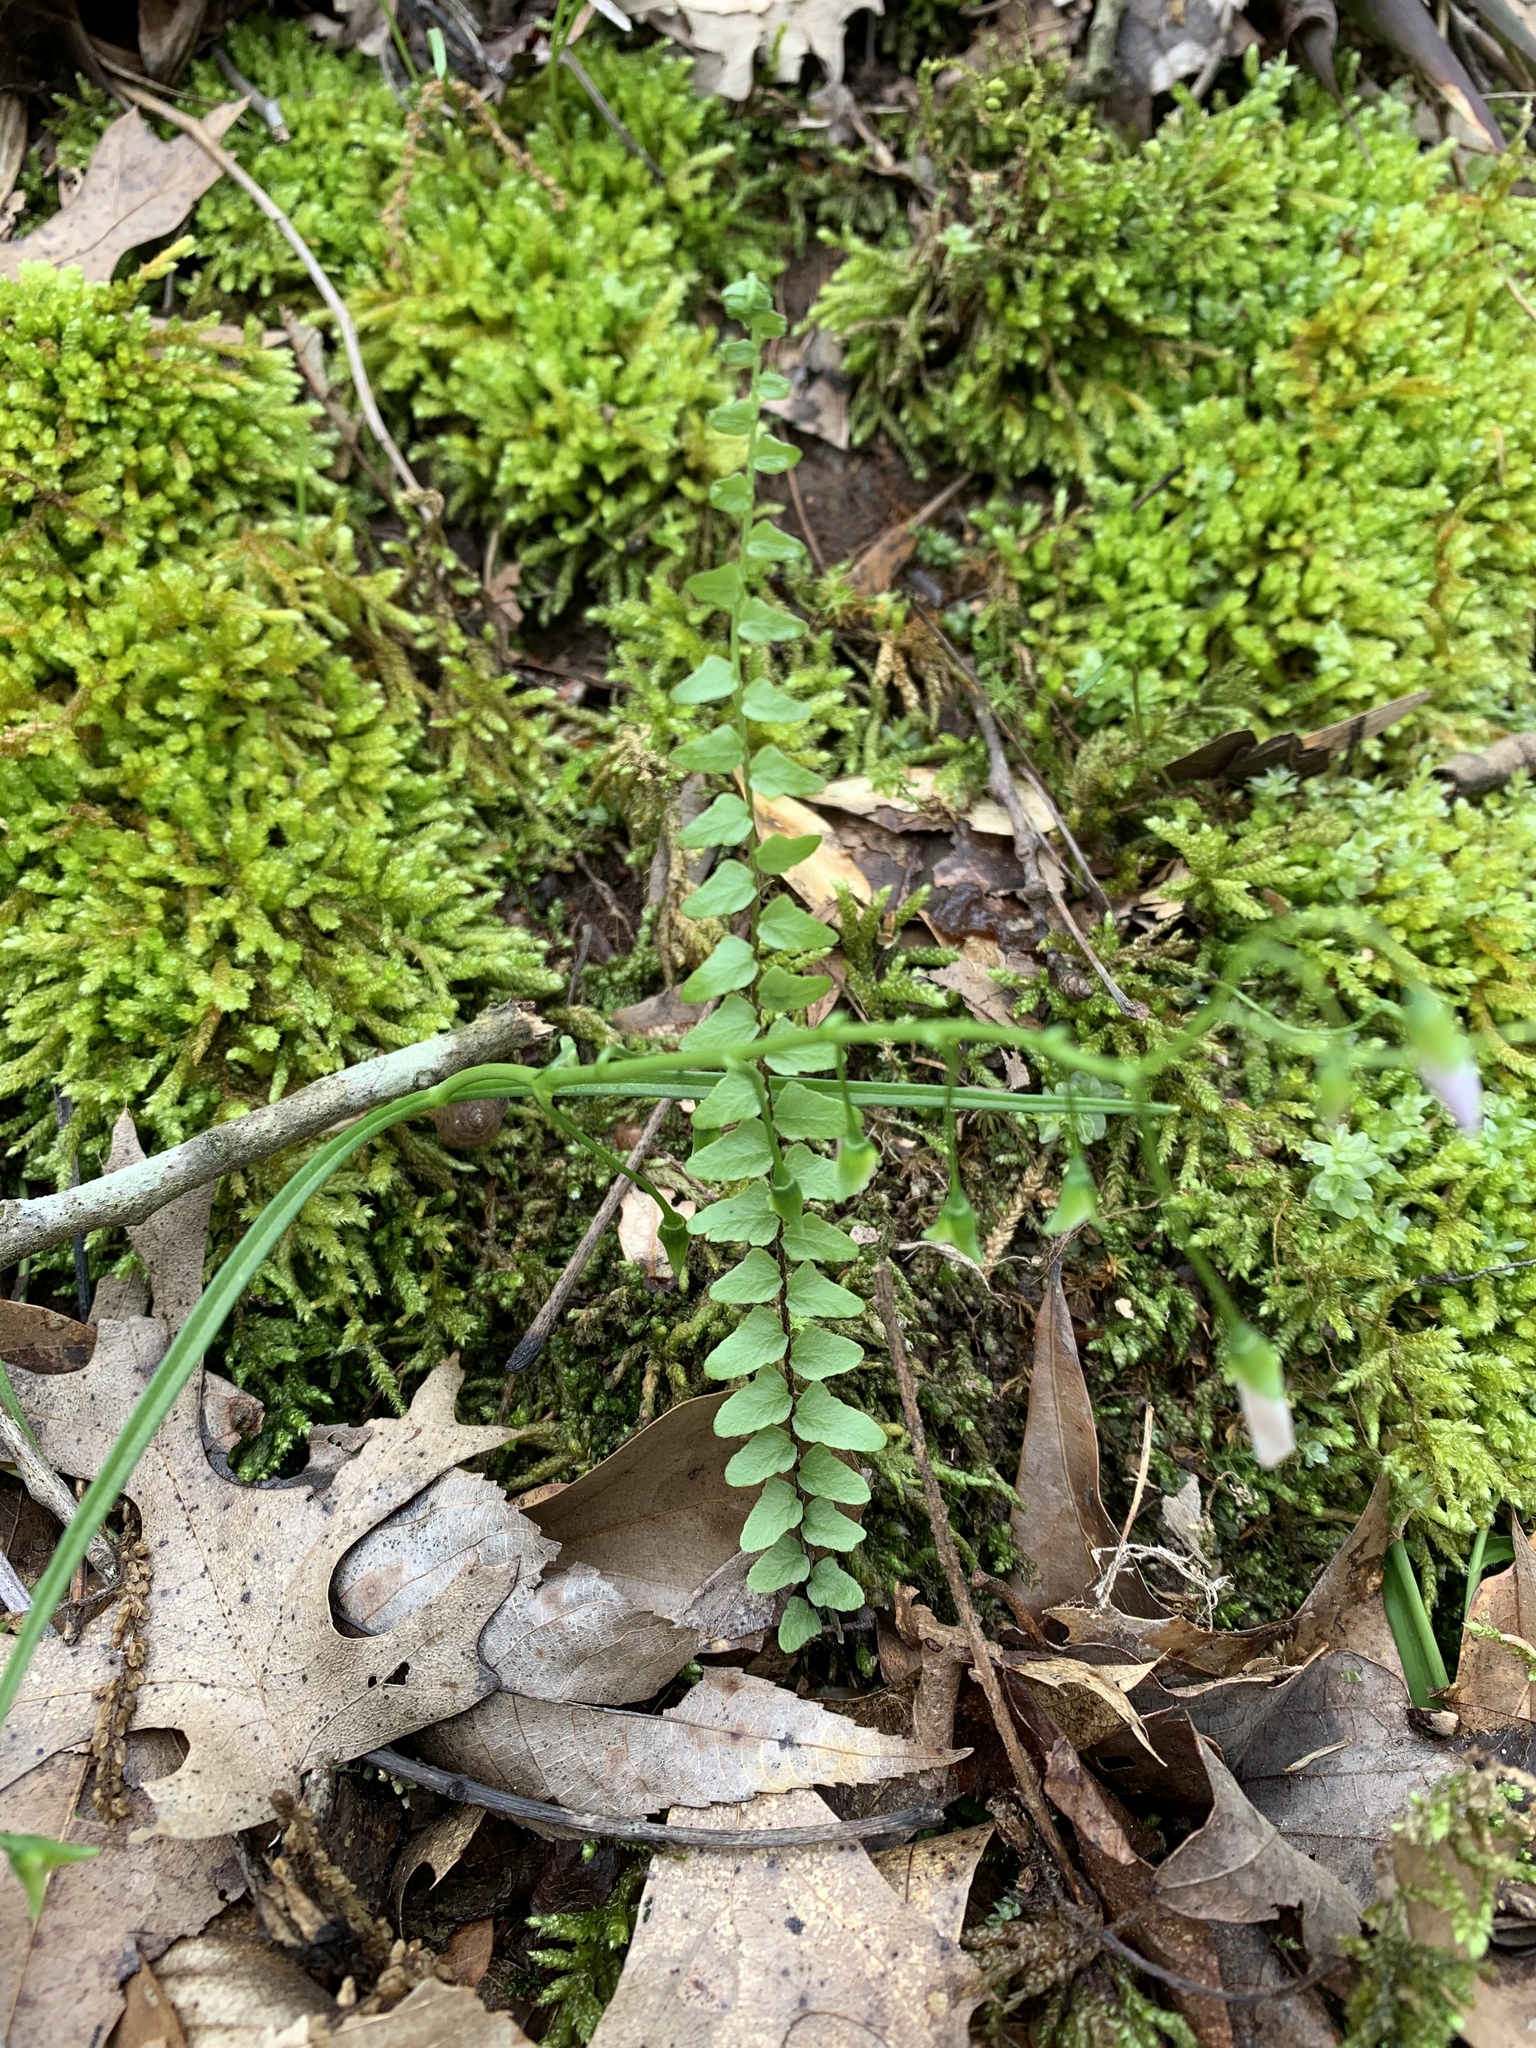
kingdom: Plantae
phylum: Tracheophyta
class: Polypodiopsida
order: Polypodiales
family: Aspleniaceae
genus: Asplenium
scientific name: Asplenium platyneuron
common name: Ebony spleenwort
